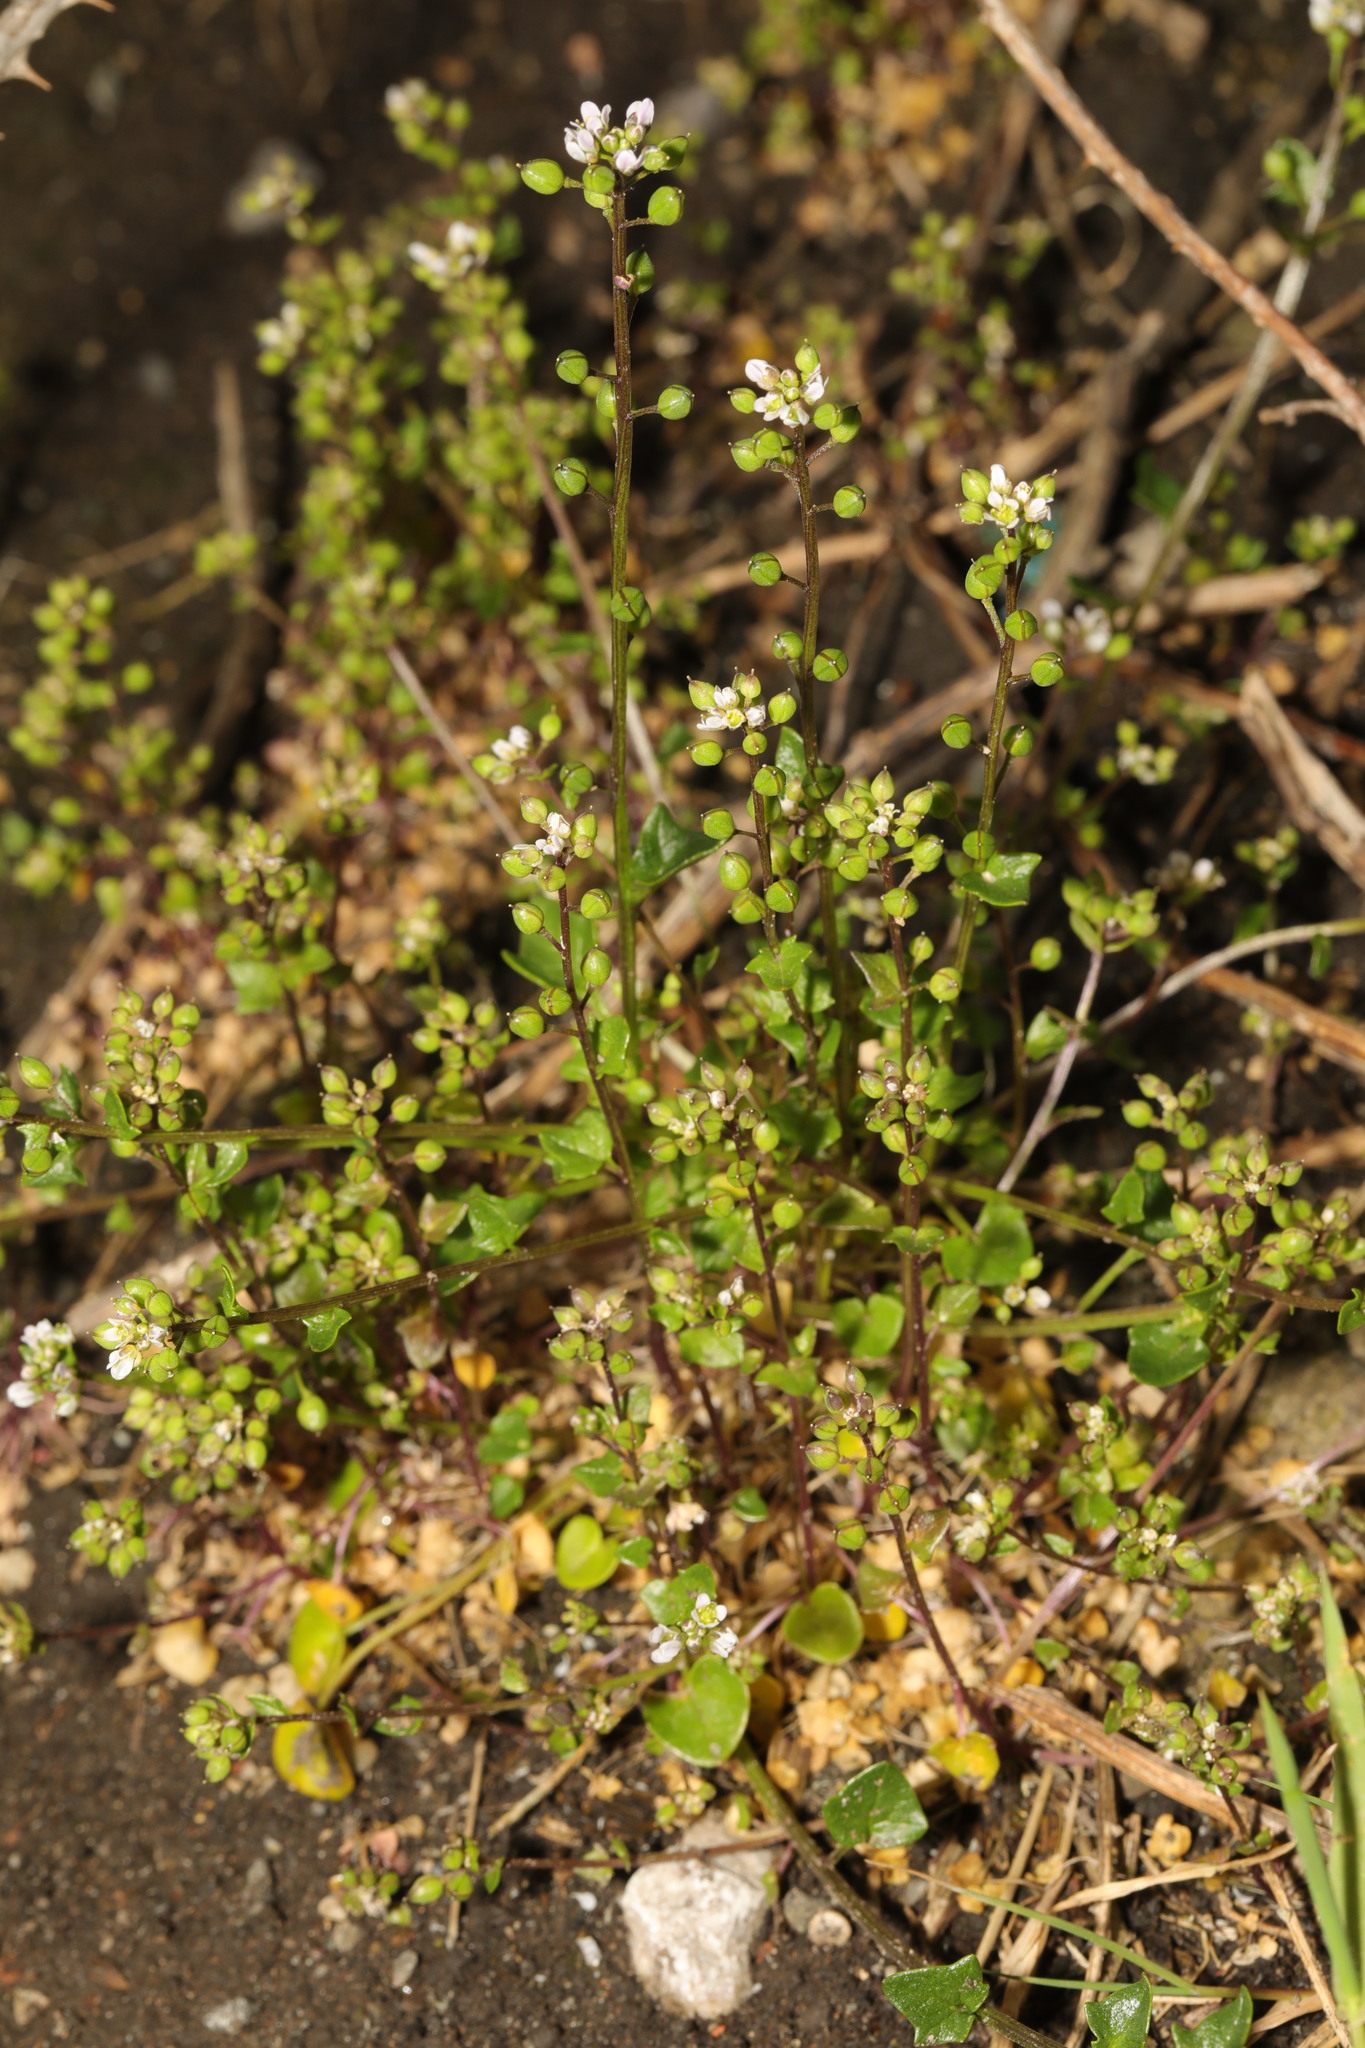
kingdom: Plantae
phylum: Tracheophyta
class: Magnoliopsida
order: Brassicales
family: Brassicaceae
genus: Cardamine
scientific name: Cardamine hirsuta
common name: Hairy bittercress
